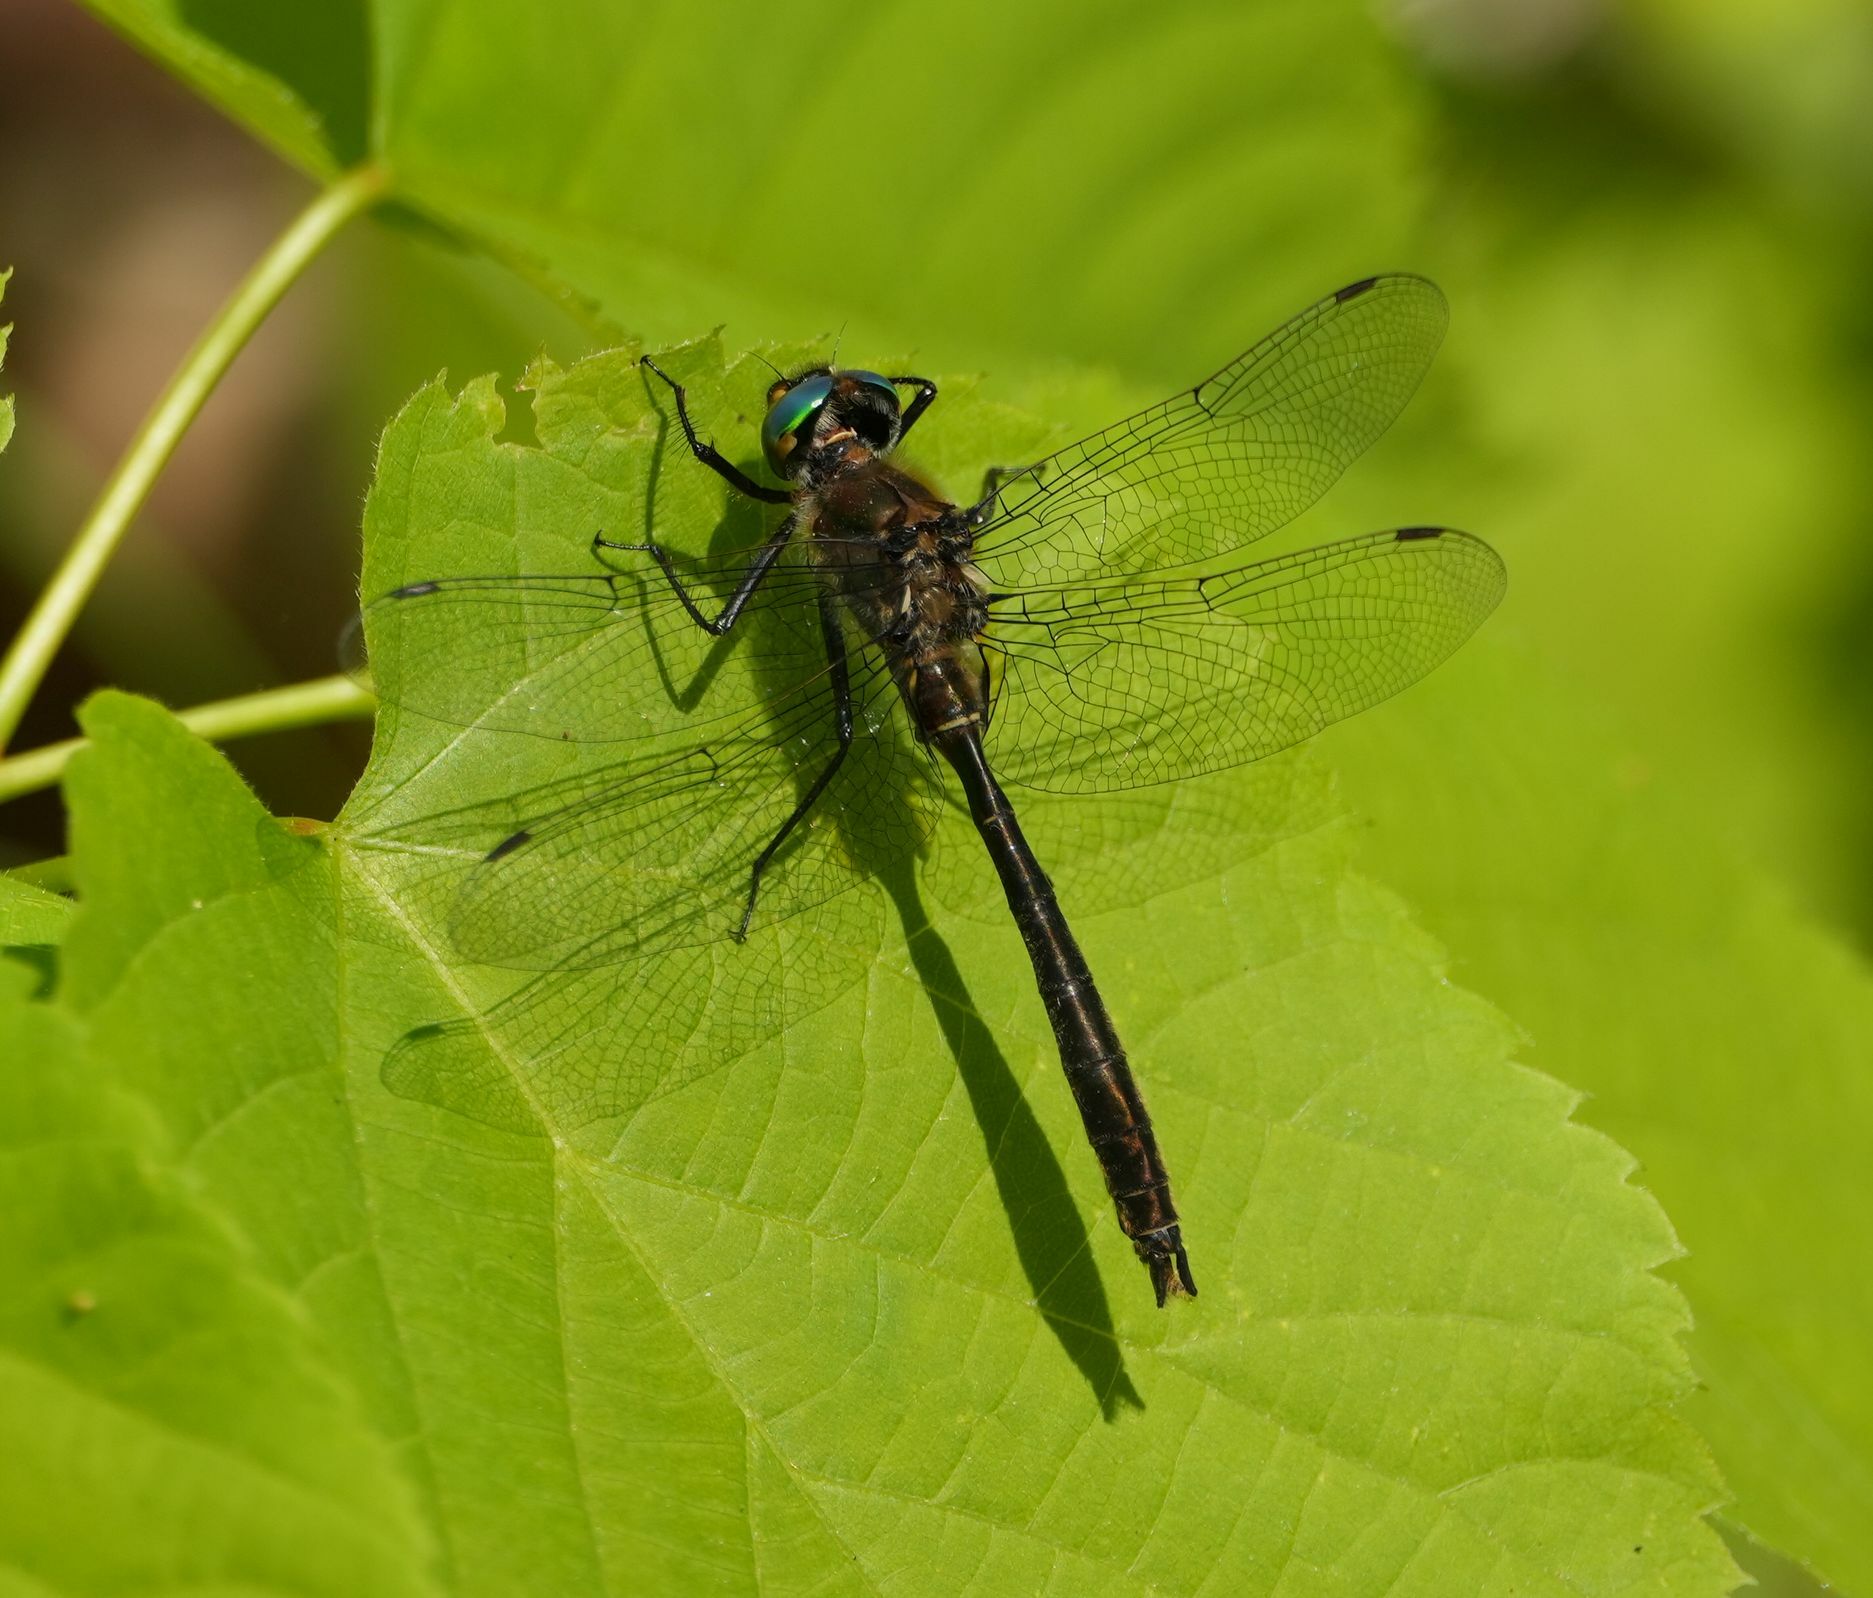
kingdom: Animalia
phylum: Arthropoda
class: Insecta
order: Odonata
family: Corduliidae
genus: Cordulia
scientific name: Cordulia shurtleffii
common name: American emerald
